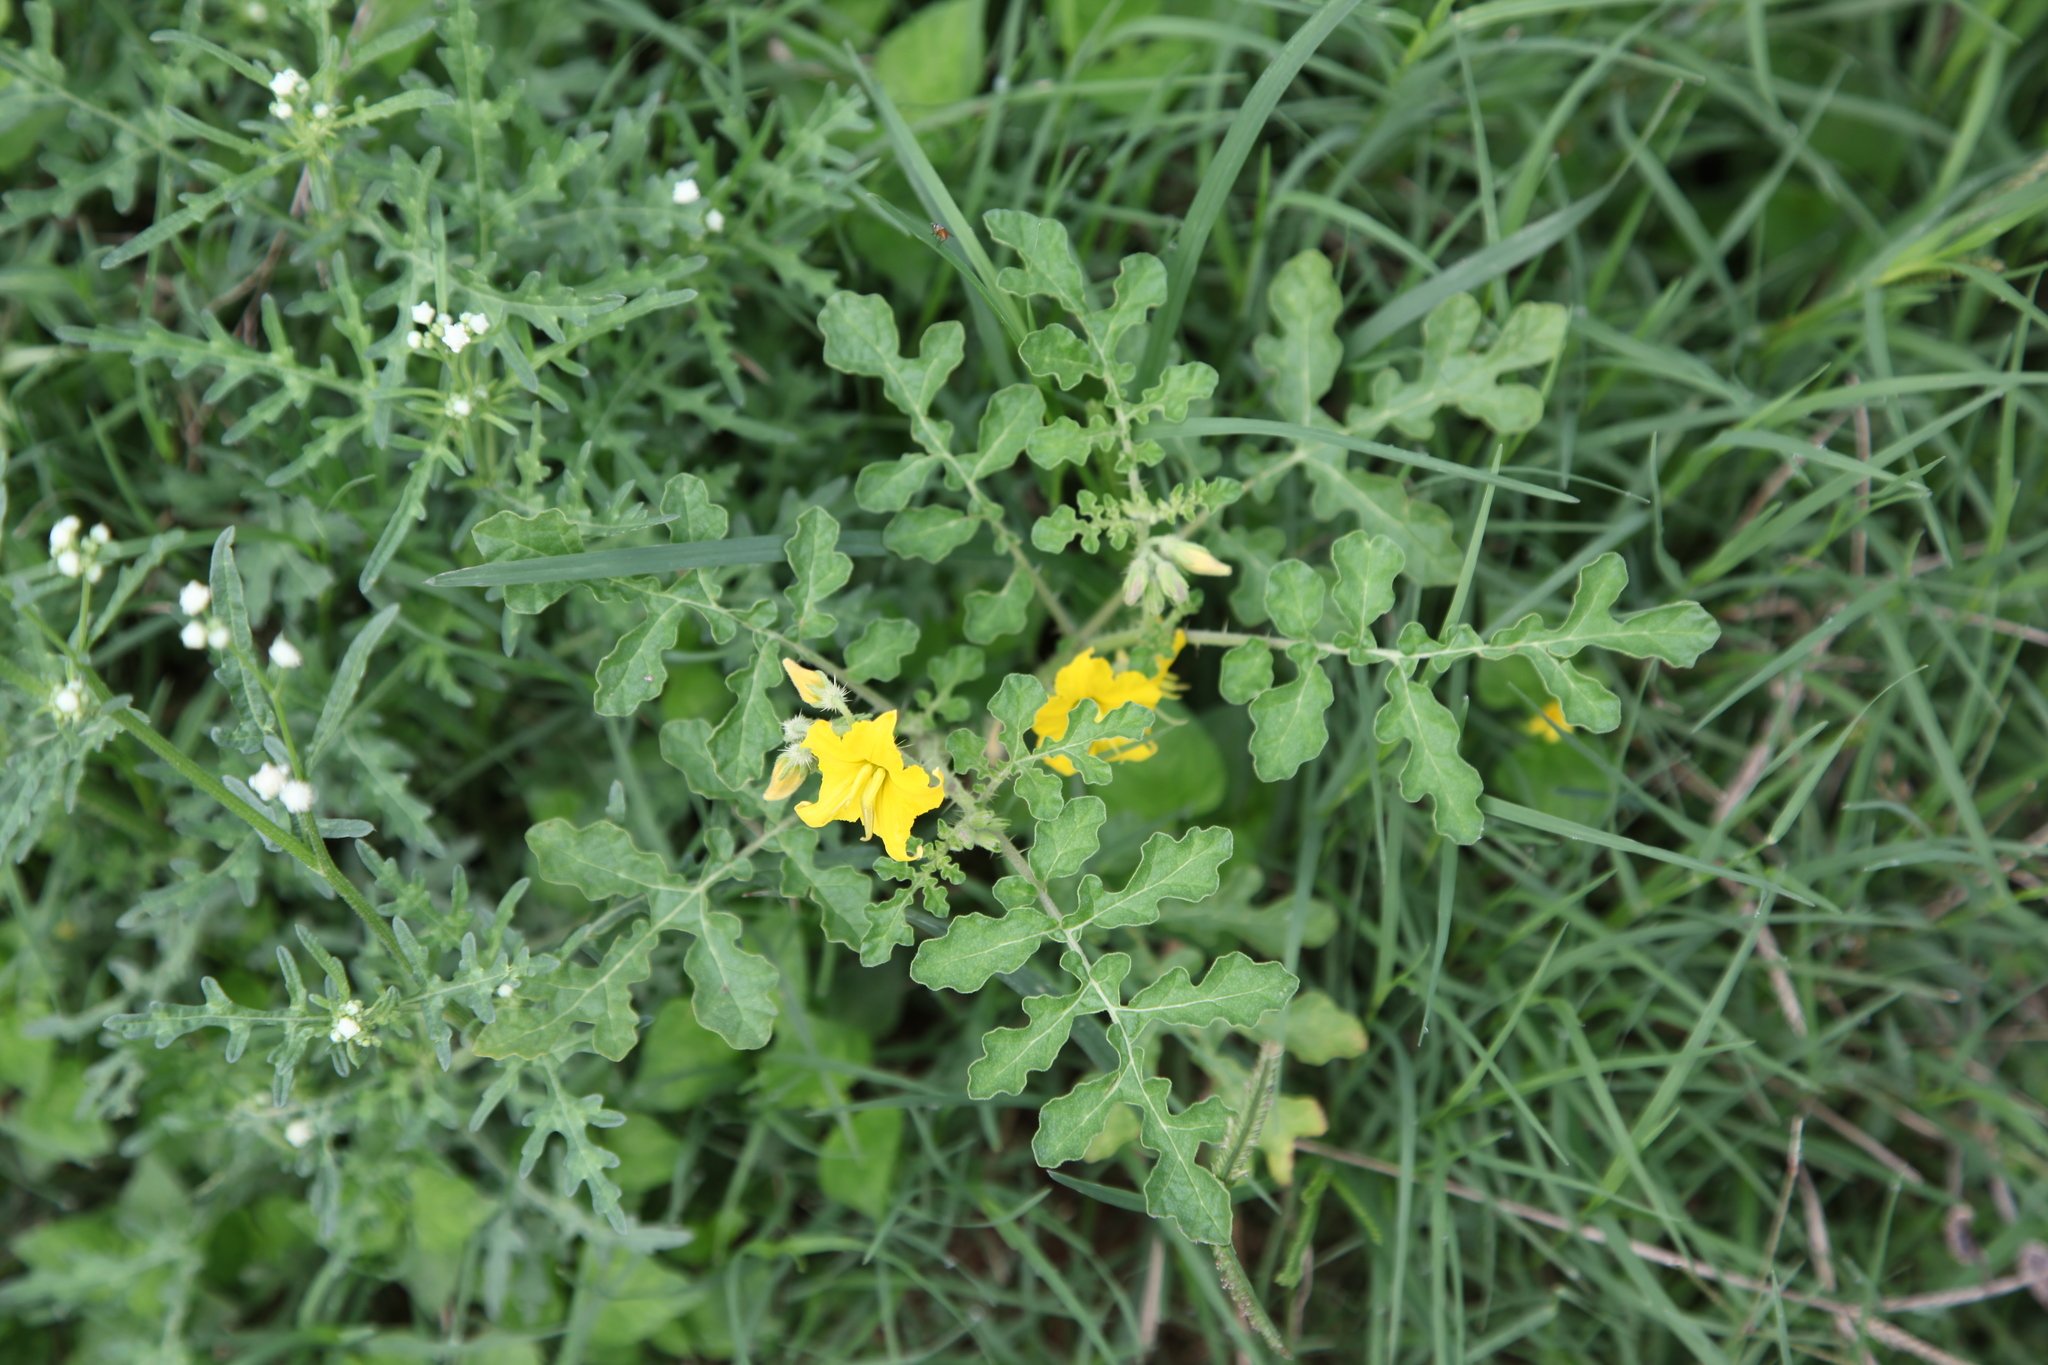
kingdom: Plantae
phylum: Tracheophyta
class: Magnoliopsida
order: Solanales
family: Solanaceae
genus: Solanum
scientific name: Solanum angustifolium
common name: Buffalobur nightshade
